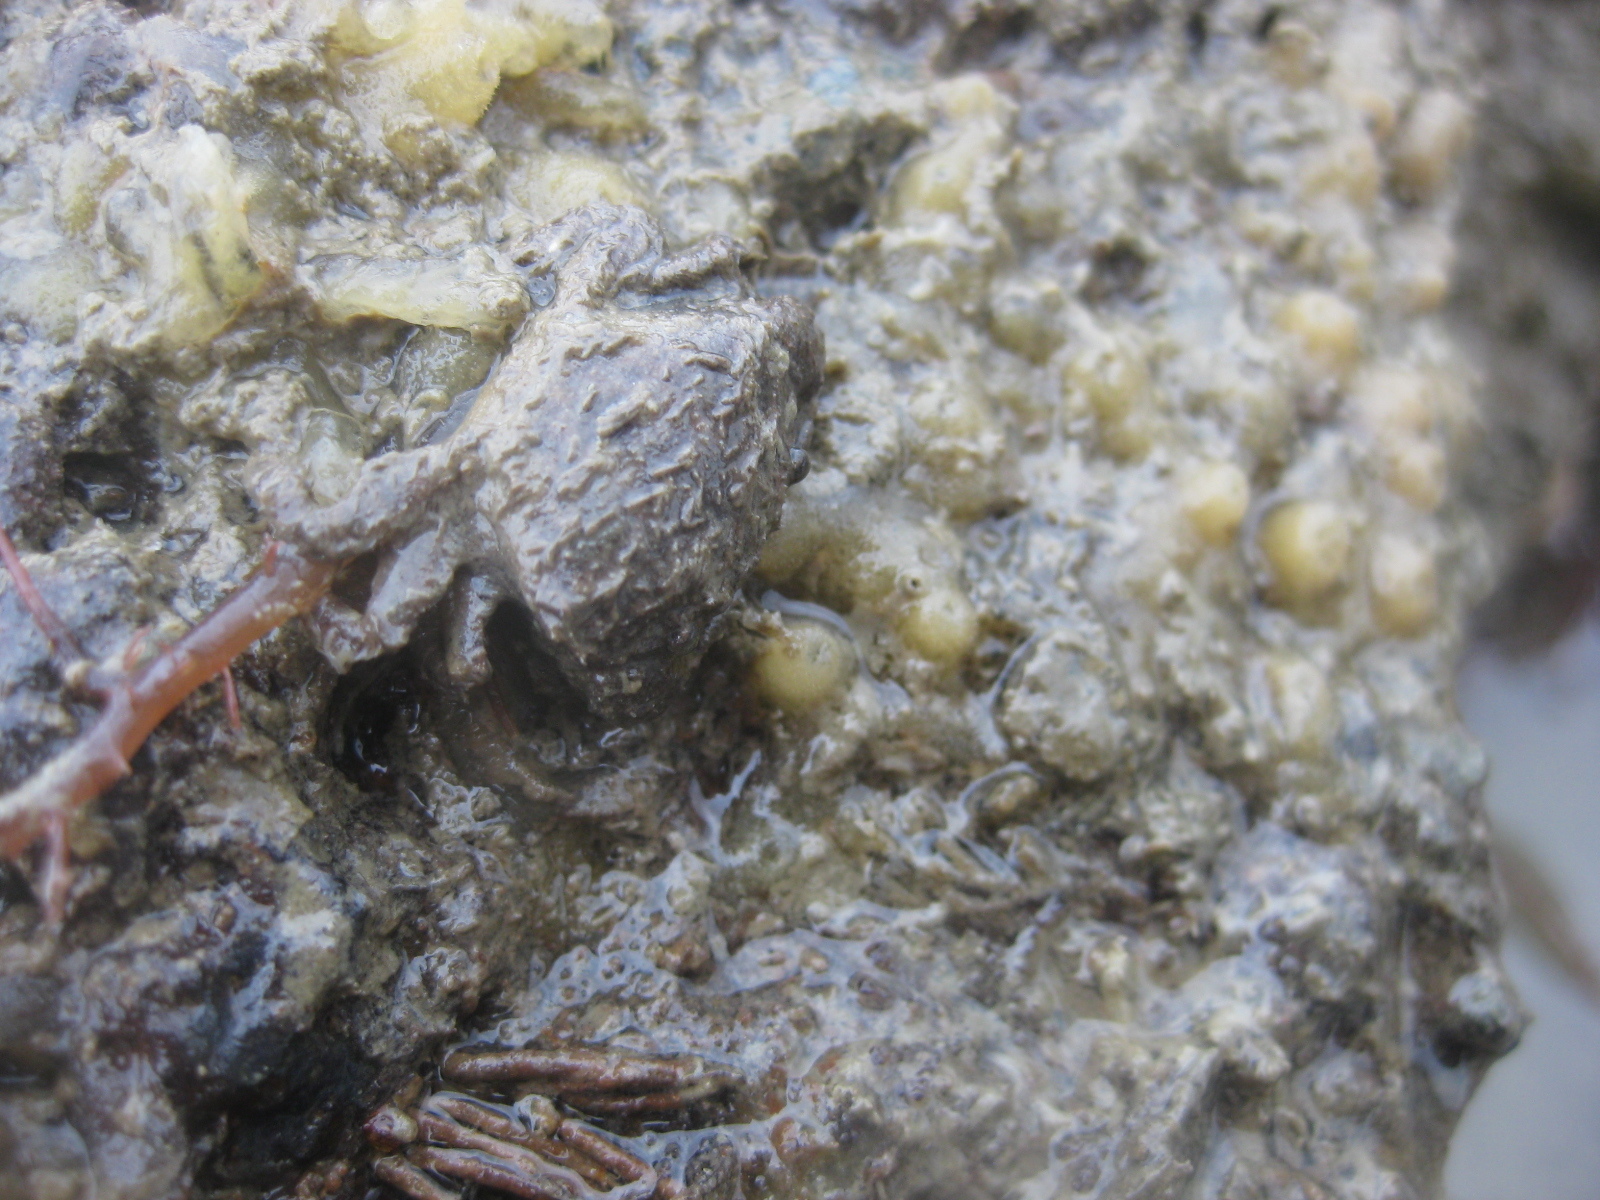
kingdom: Animalia
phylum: Arthropoda
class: Malacostraca
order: Decapoda
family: Pilumnidae
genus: Pilumnopeus
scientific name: Pilumnopeus serratifrons
